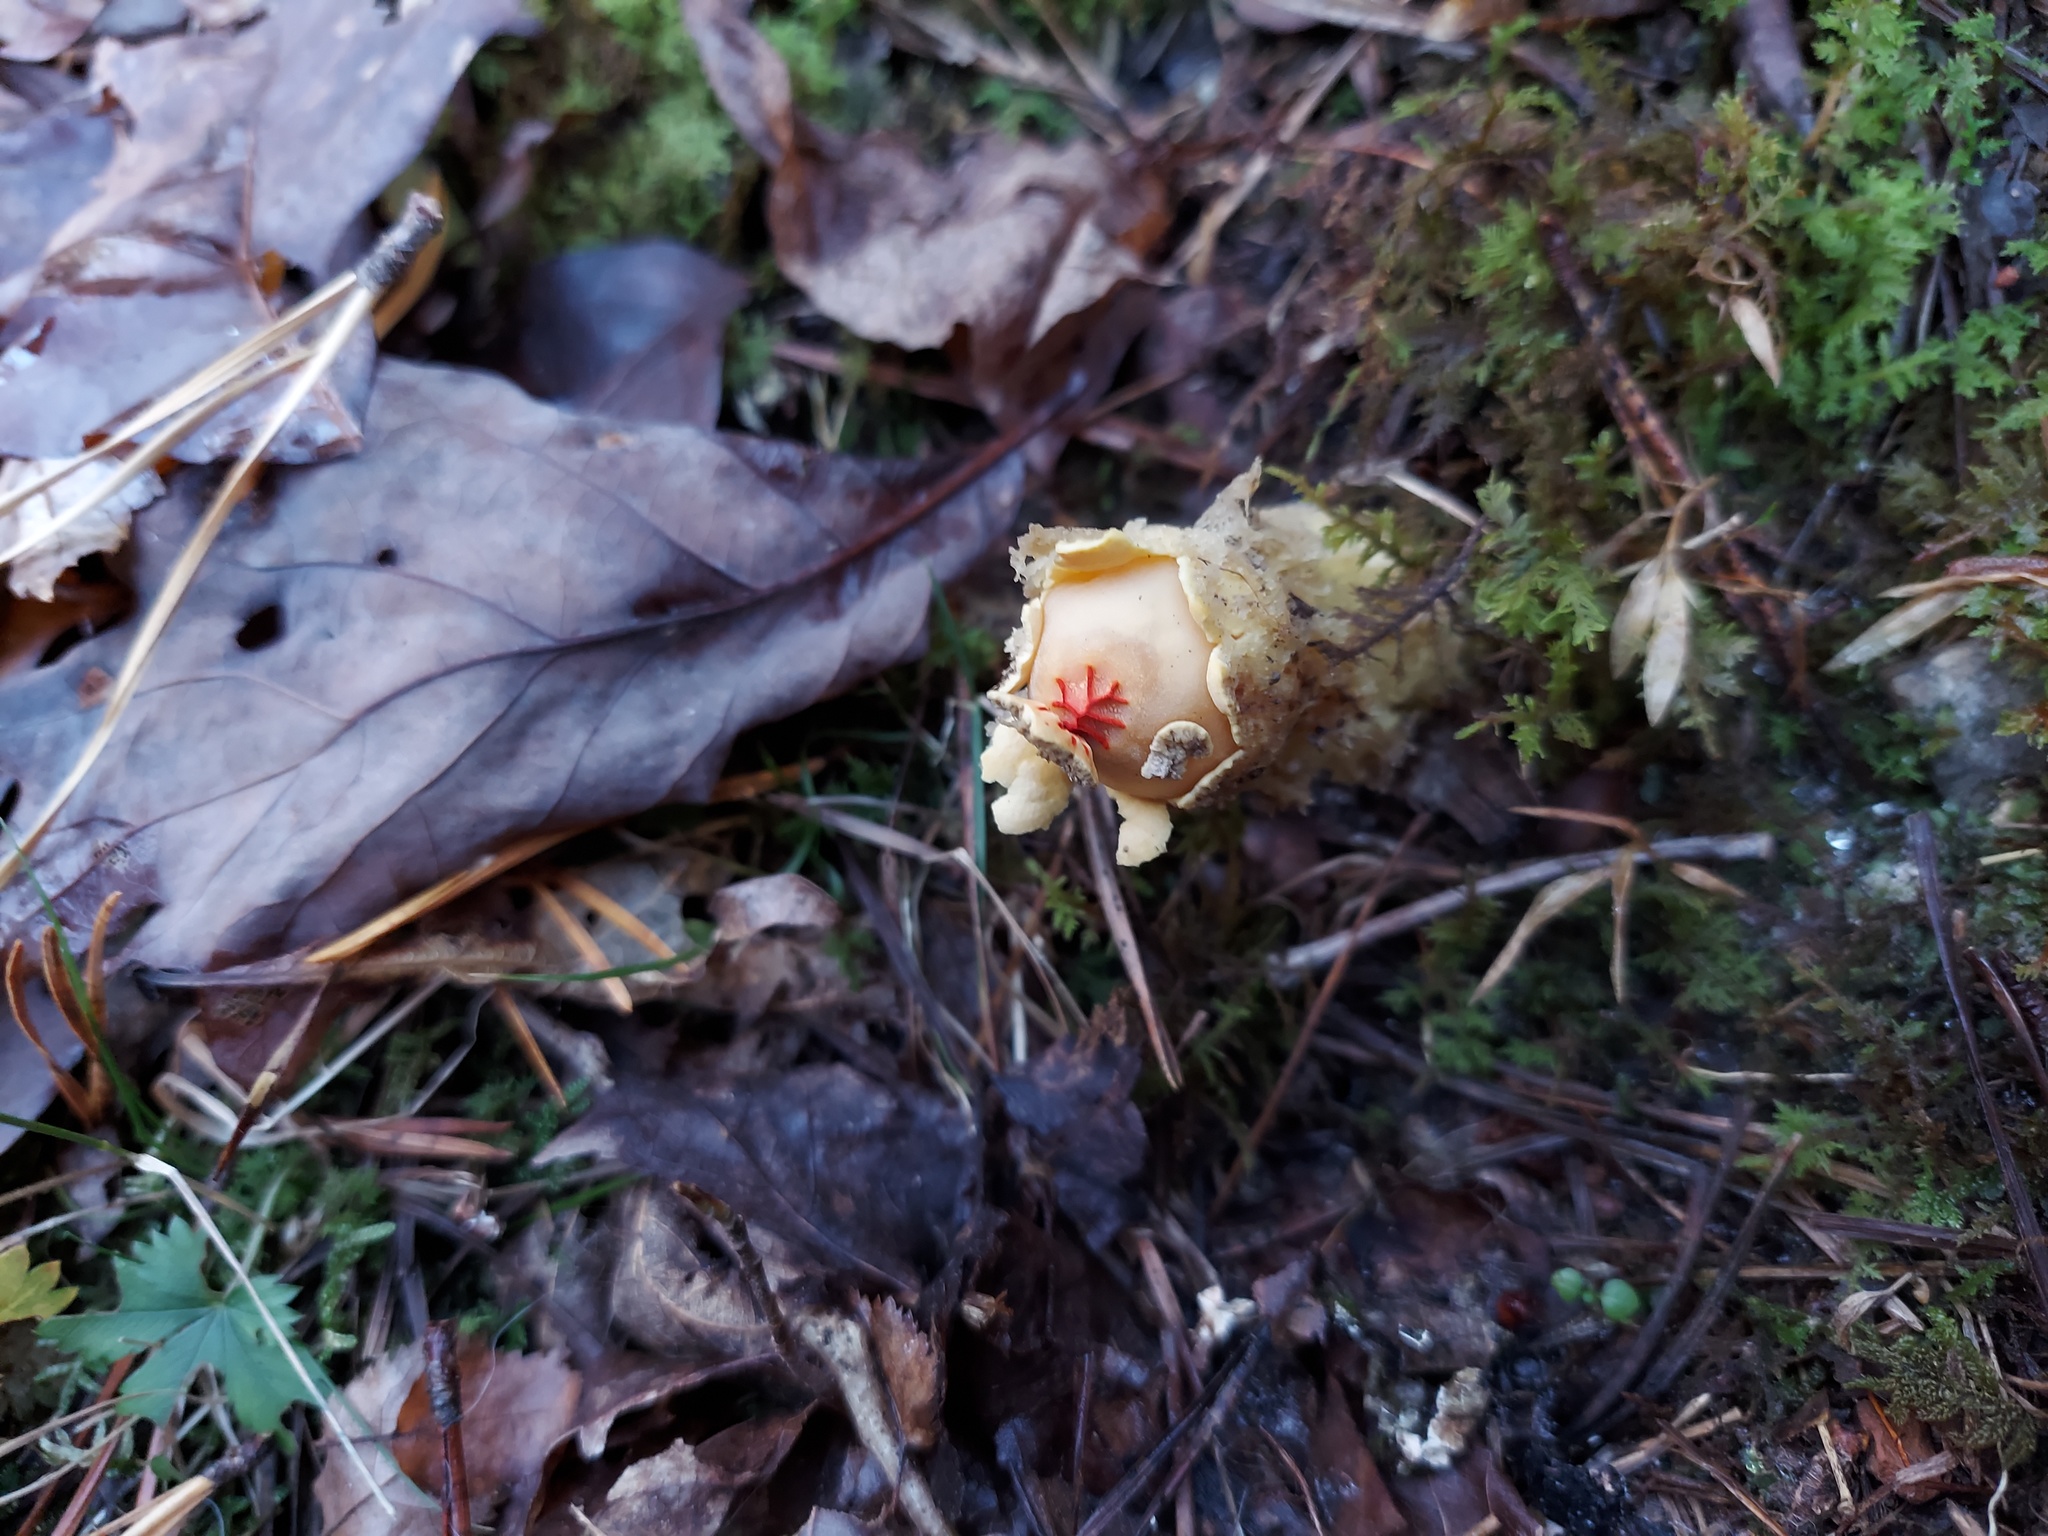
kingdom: Fungi
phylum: Basidiomycota
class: Agaricomycetes
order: Boletales
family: Calostomataceae
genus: Calostoma
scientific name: Calostoma lutescens
